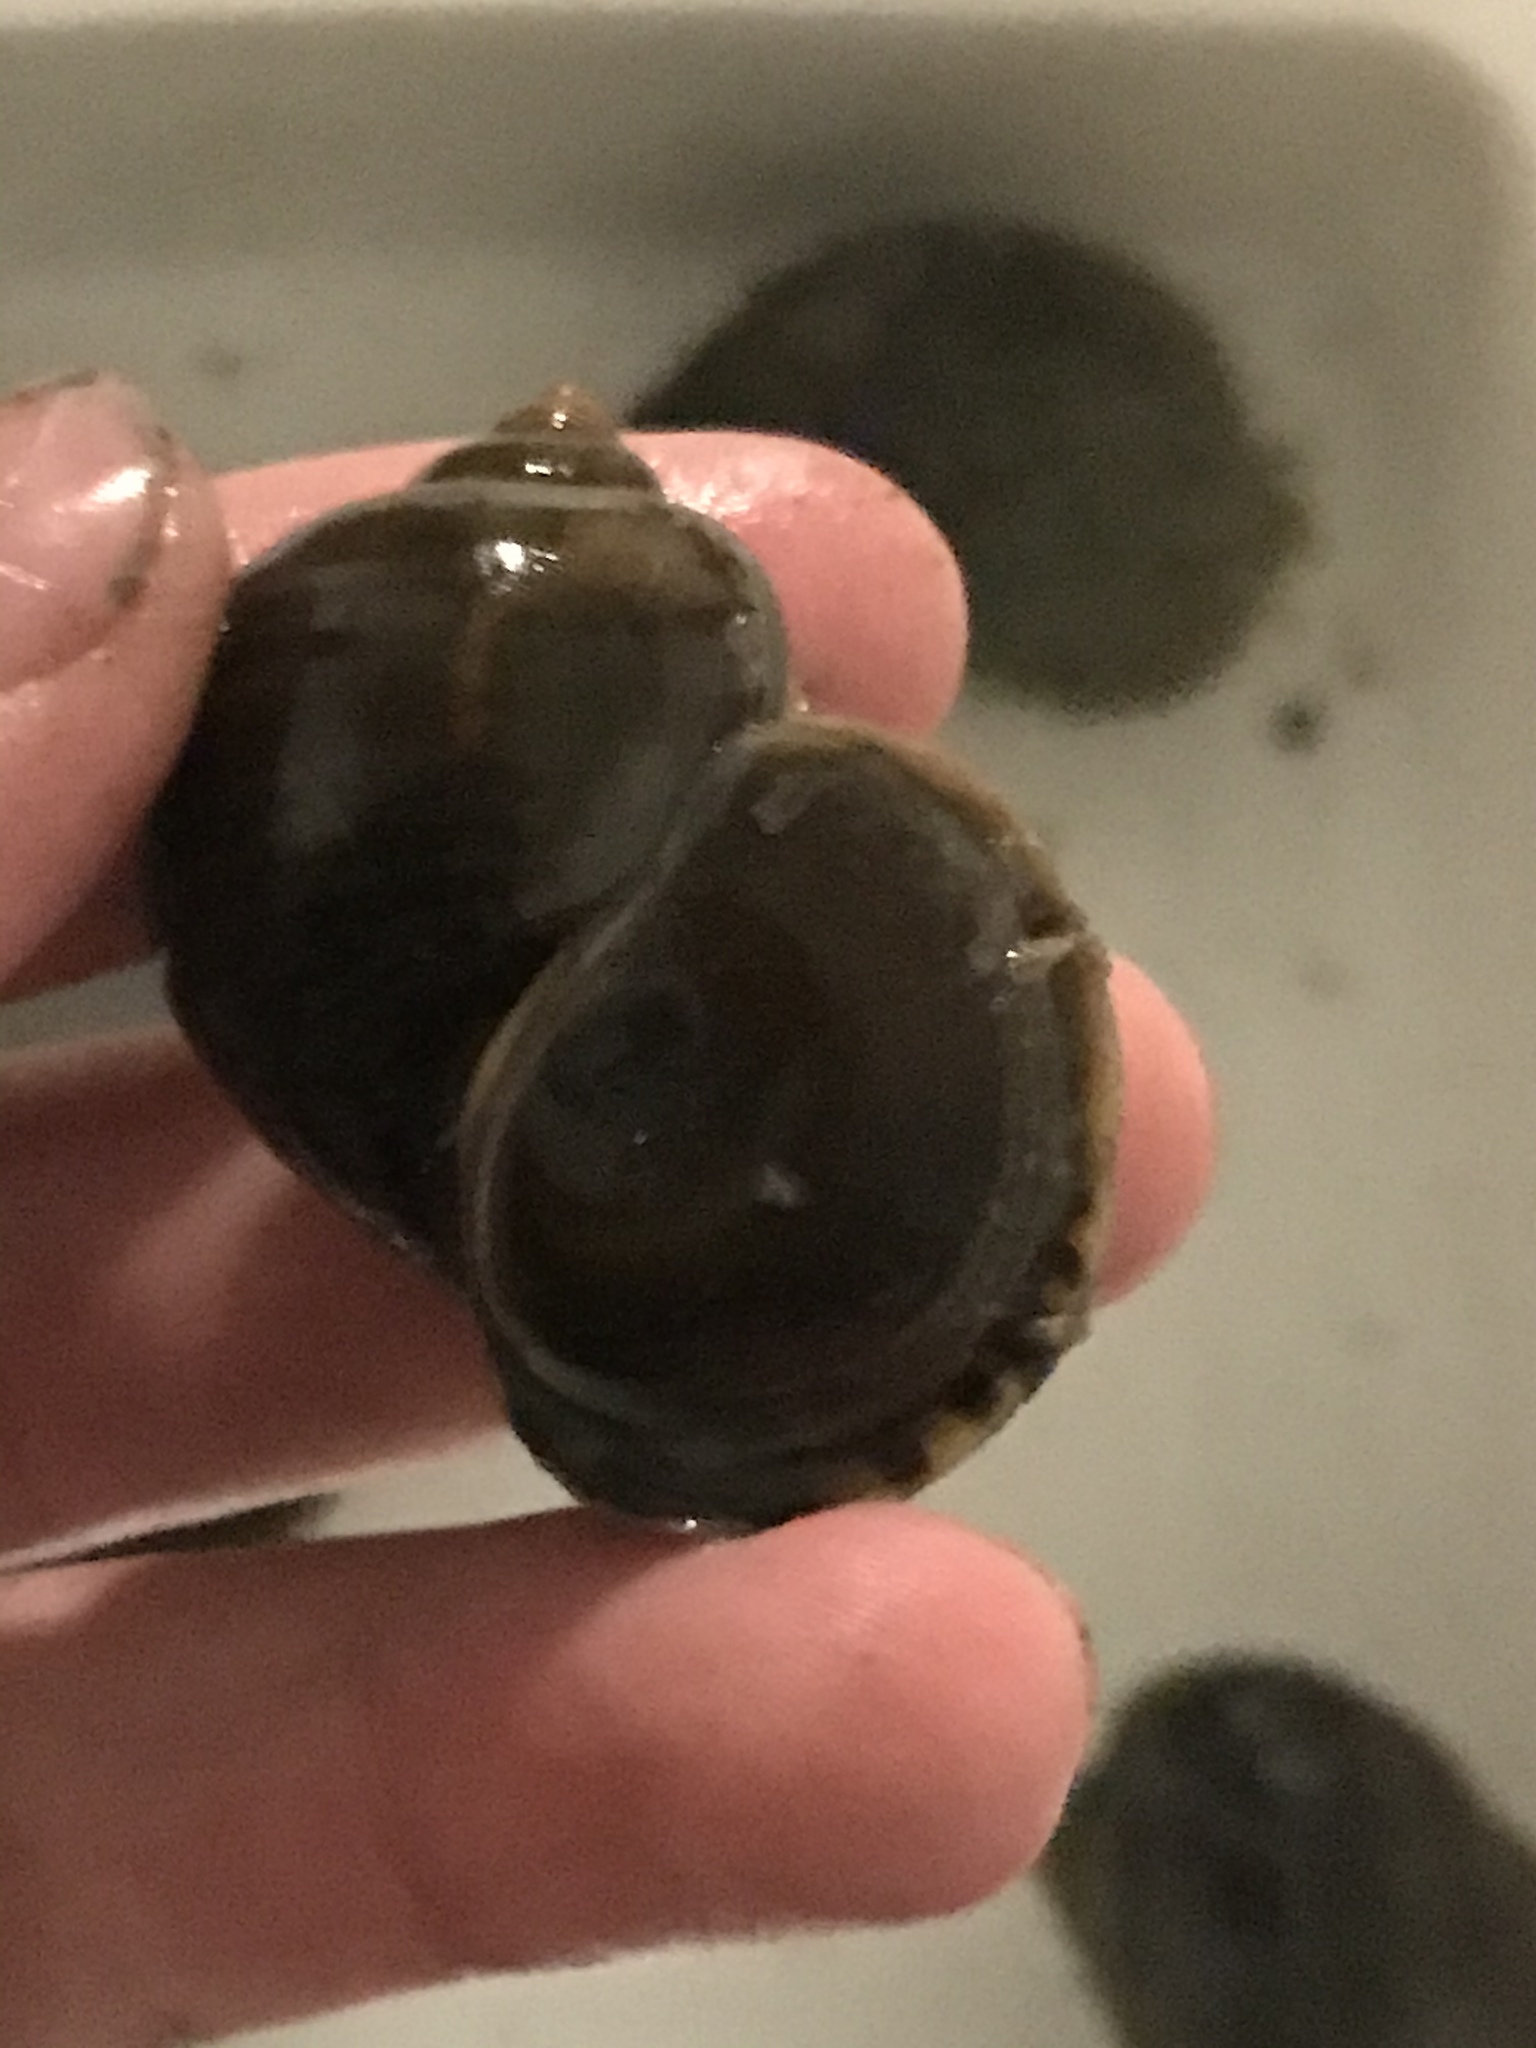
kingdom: Animalia
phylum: Mollusca
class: Gastropoda
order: Architaenioglossa
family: Ampullariidae
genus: Pomacea
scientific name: Pomacea canaliculata
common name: Channeled applesnail
